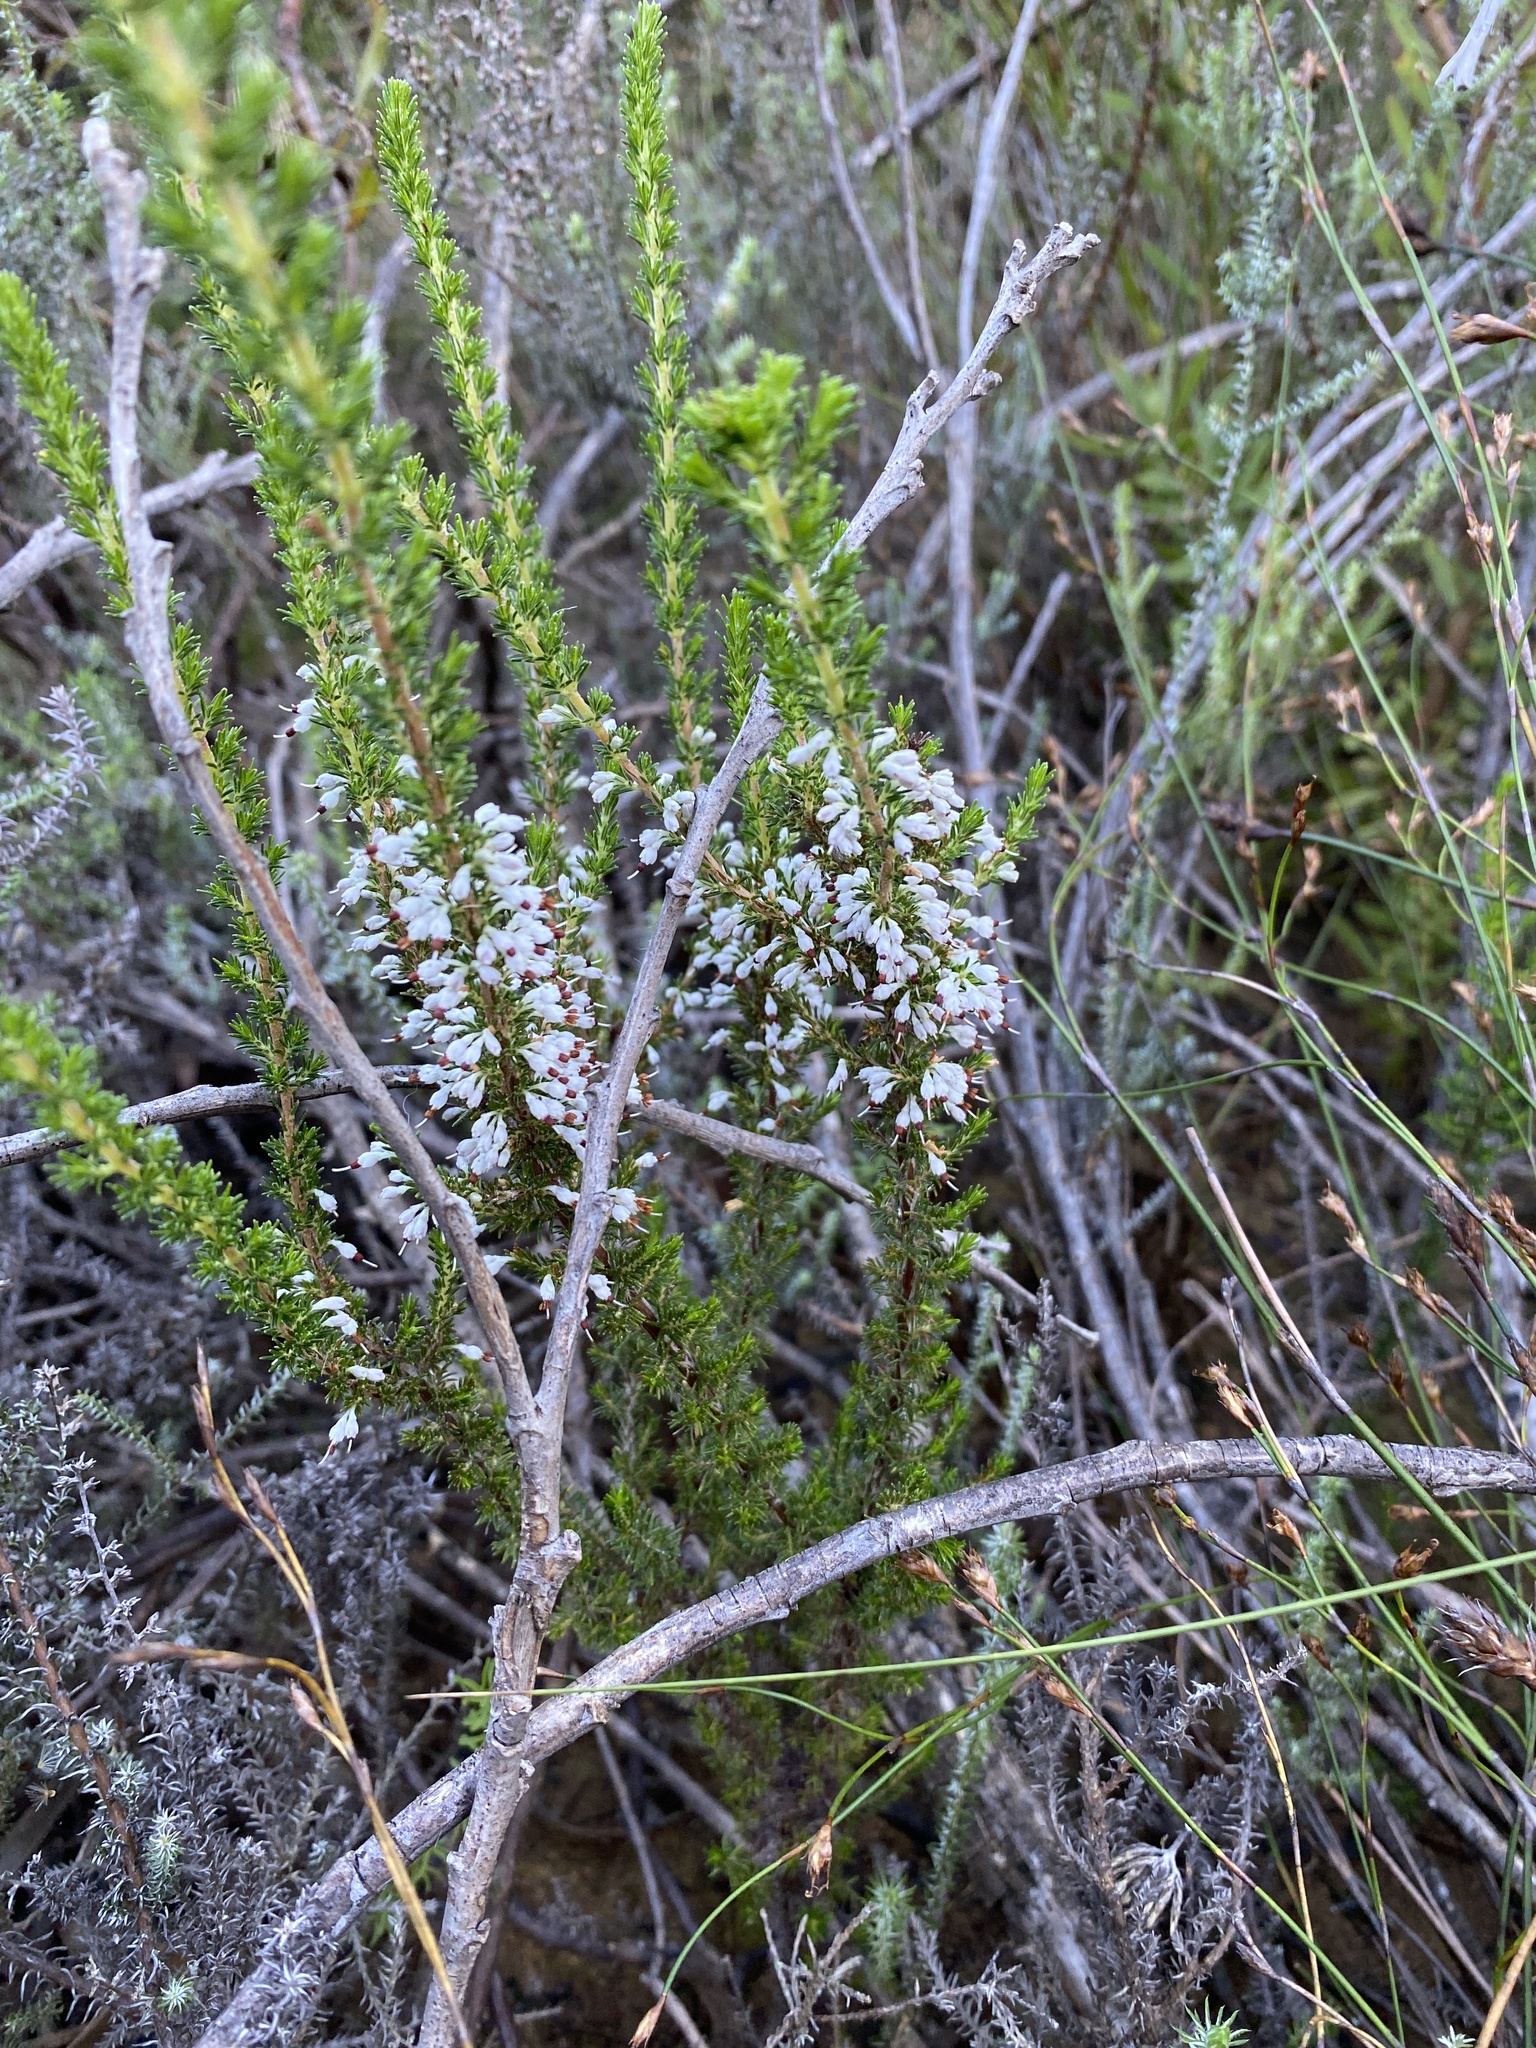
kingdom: Plantae
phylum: Tracheophyta
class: Magnoliopsida
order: Ericales
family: Ericaceae
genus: Erica
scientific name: Erica imbricata
